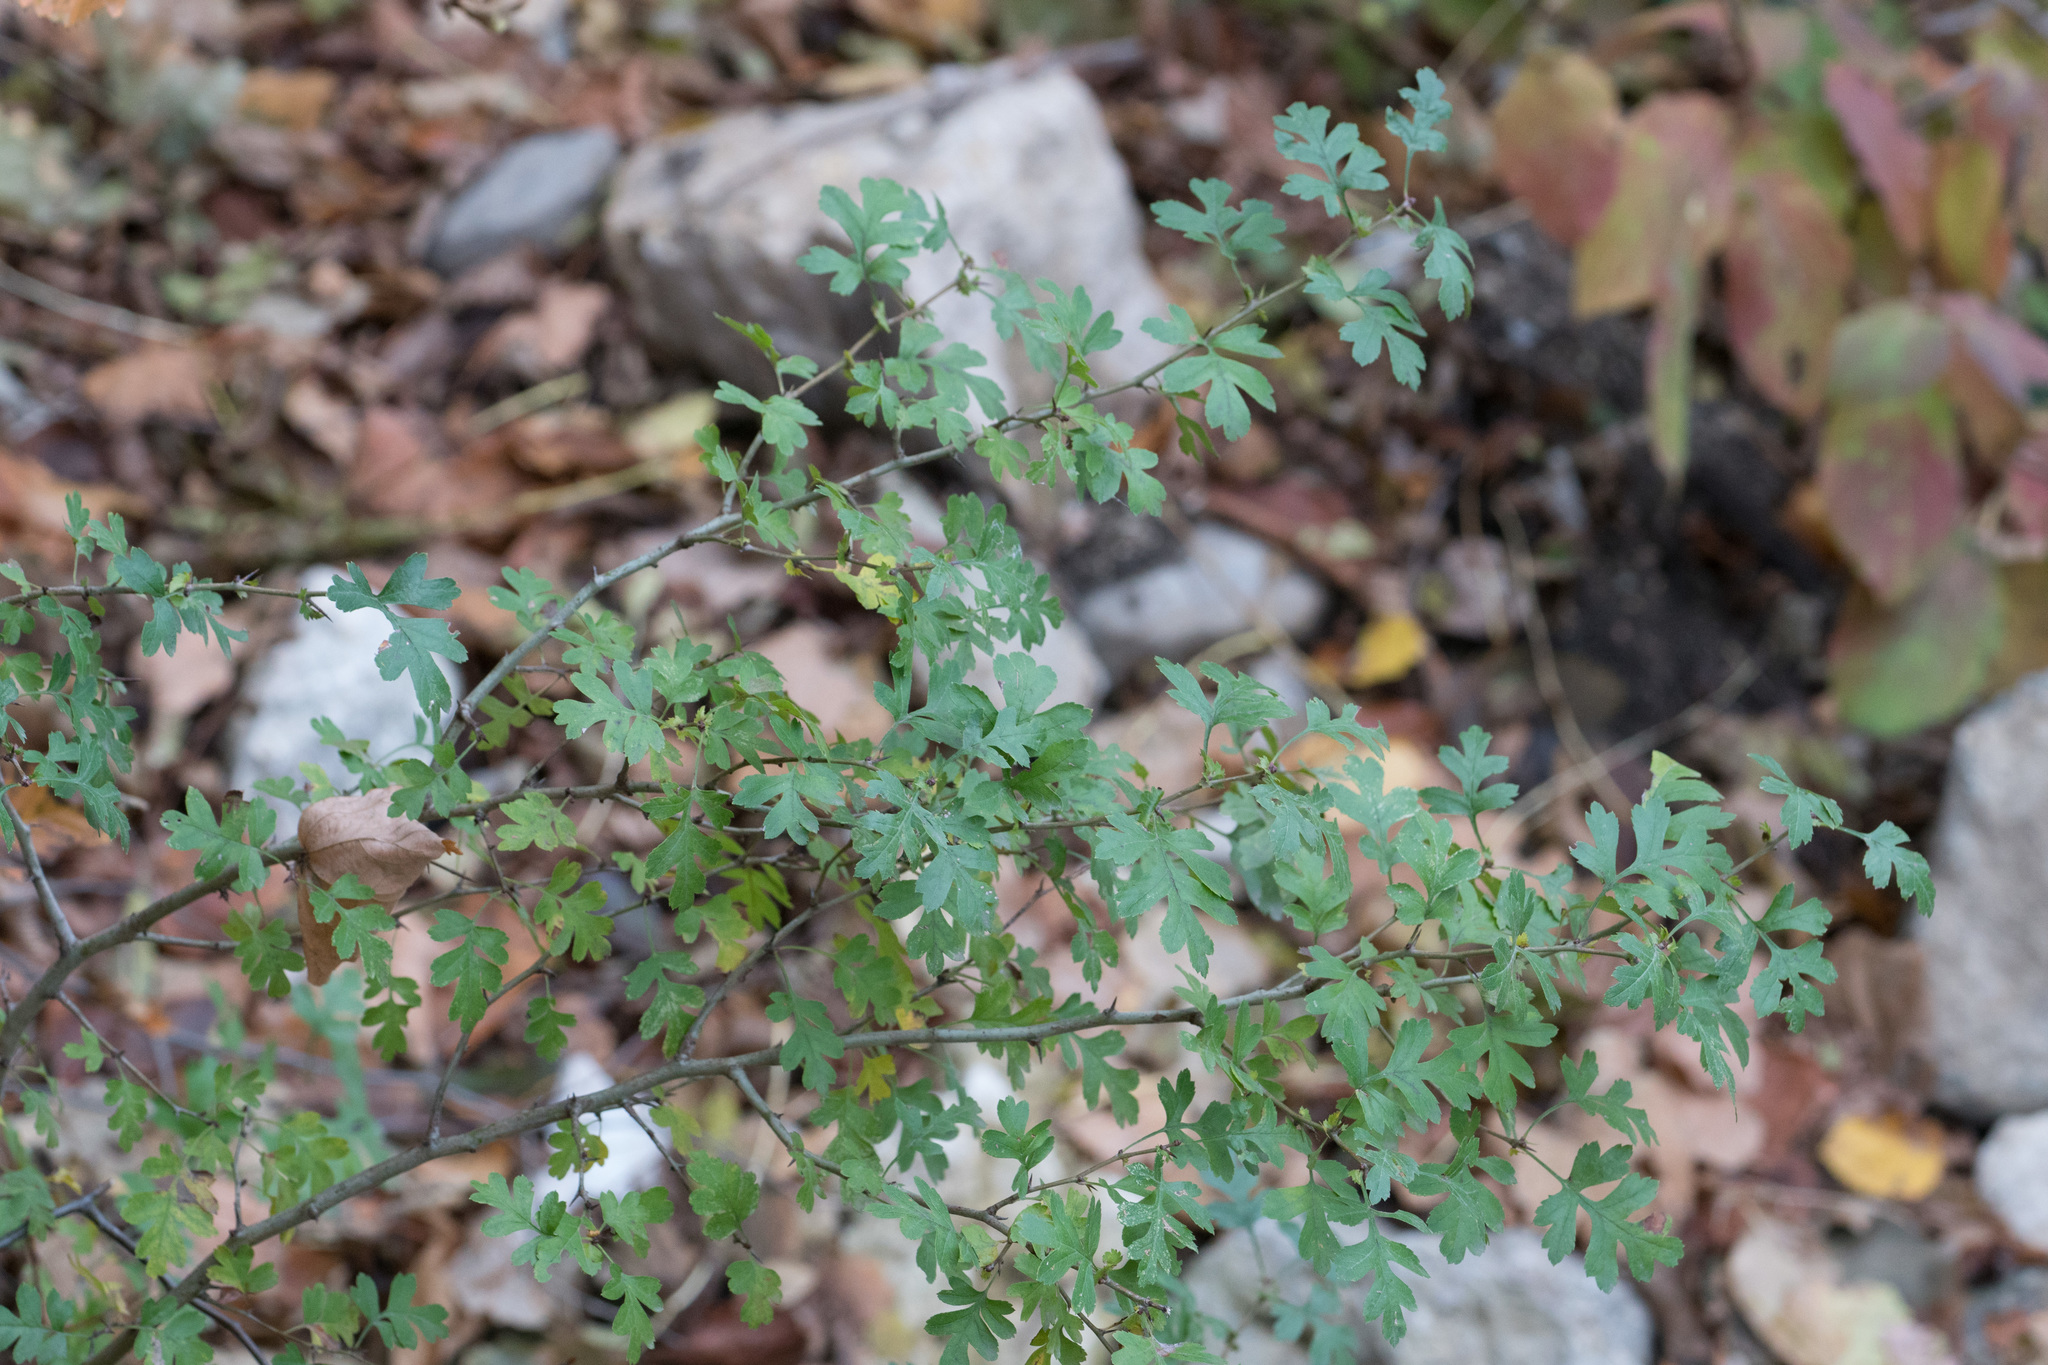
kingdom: Plantae
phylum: Tracheophyta
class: Magnoliopsida
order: Rosales
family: Rosaceae
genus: Crataegus
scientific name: Crataegus monogyna
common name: Hawthorn
